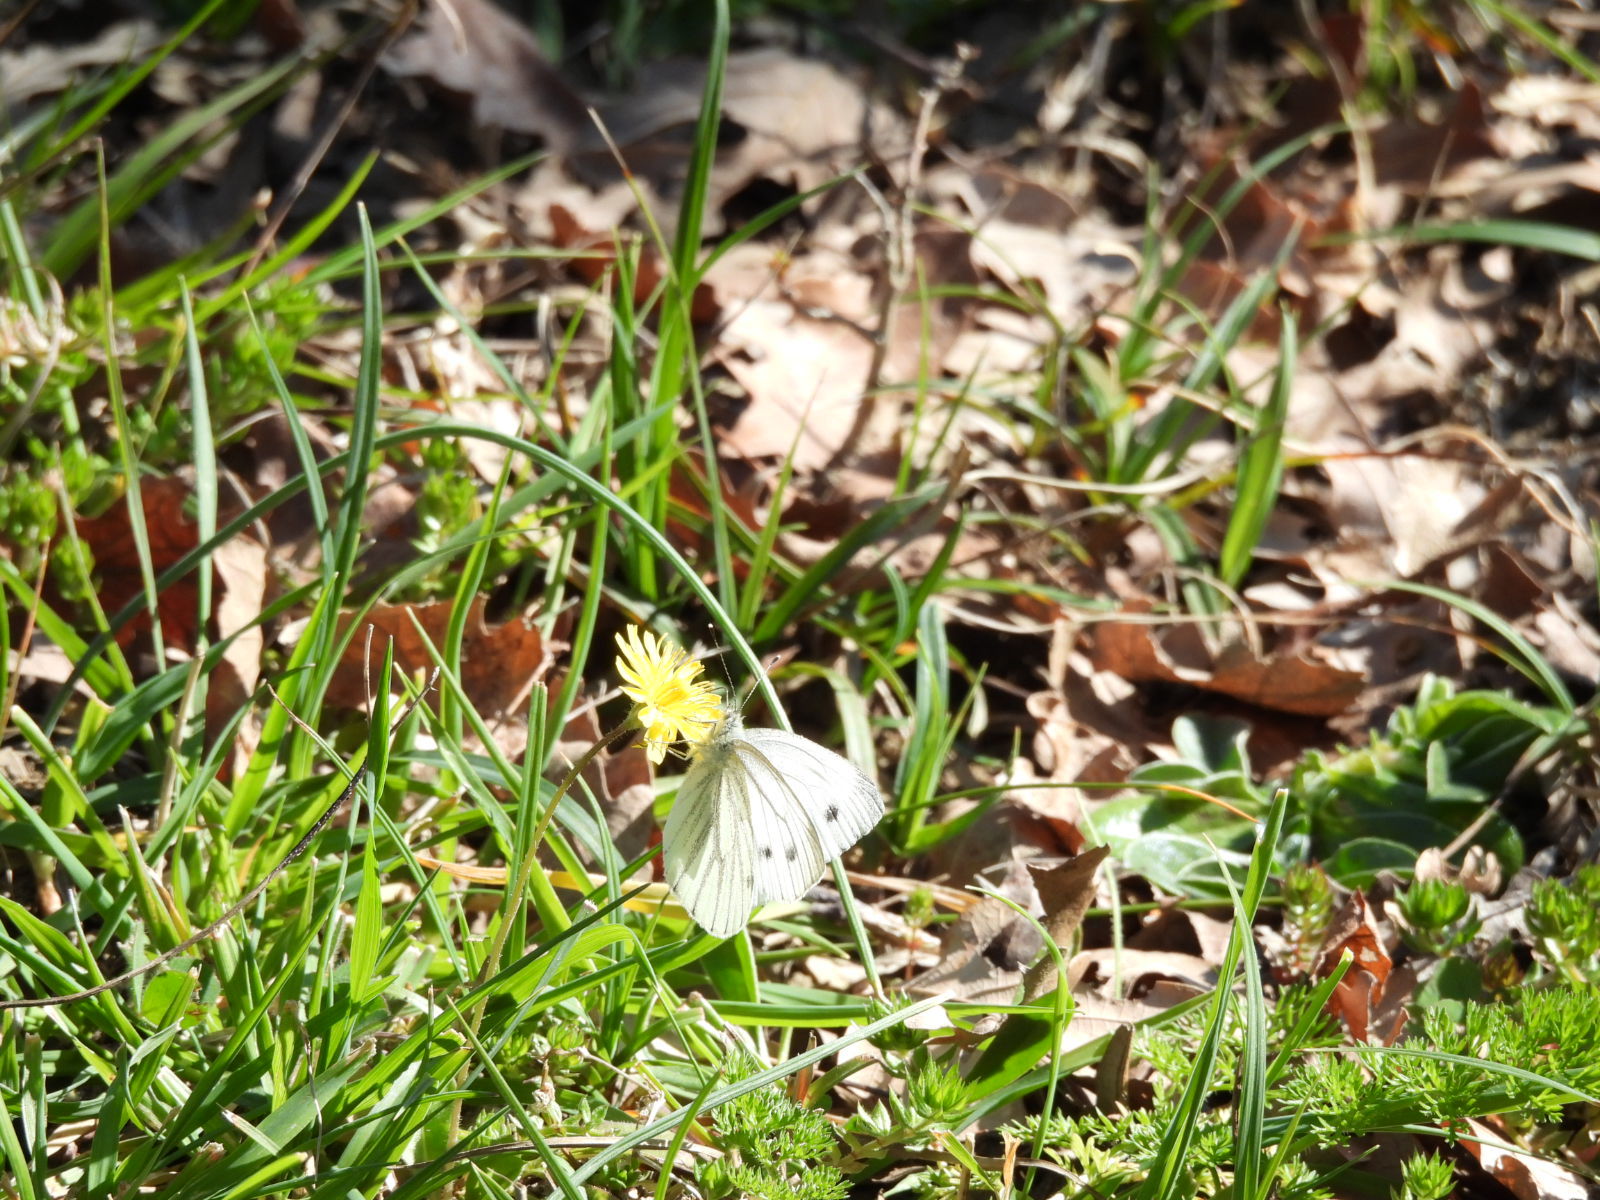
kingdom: Animalia
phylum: Arthropoda
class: Insecta
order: Lepidoptera
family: Pieridae
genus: Pieris
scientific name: Pieris napi
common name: Green-veined white
